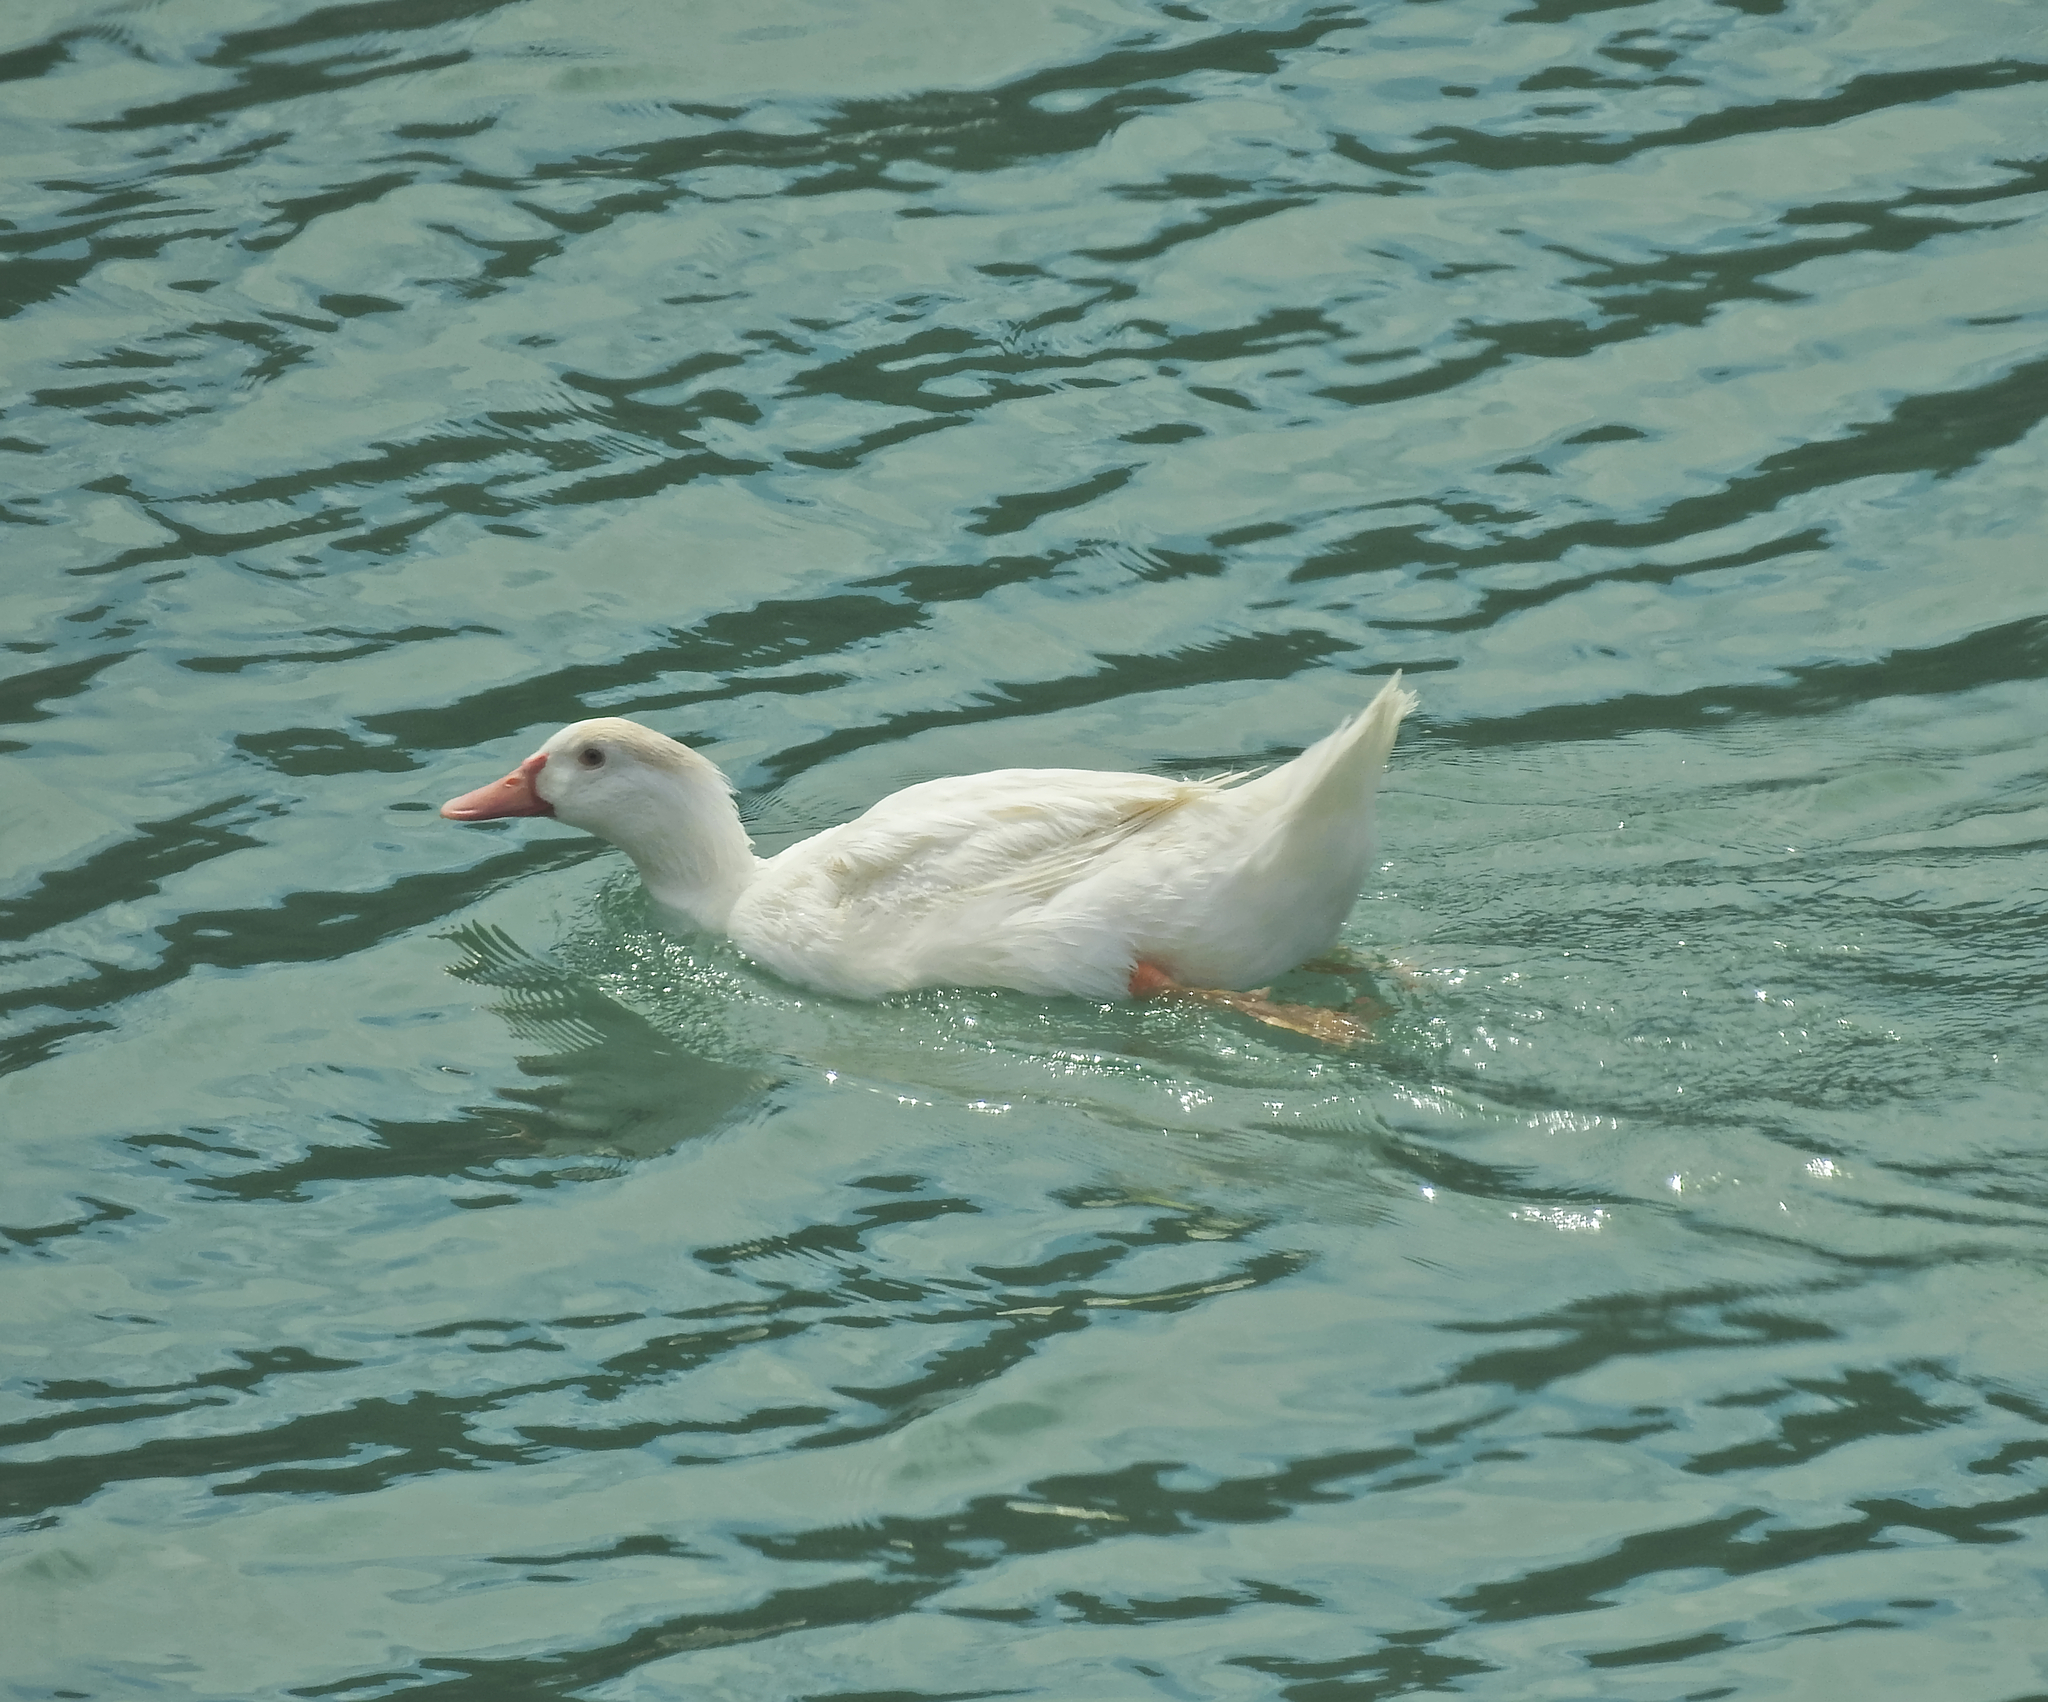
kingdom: Animalia
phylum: Chordata
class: Aves
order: Anseriformes
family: Anatidae
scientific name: Anatidae
